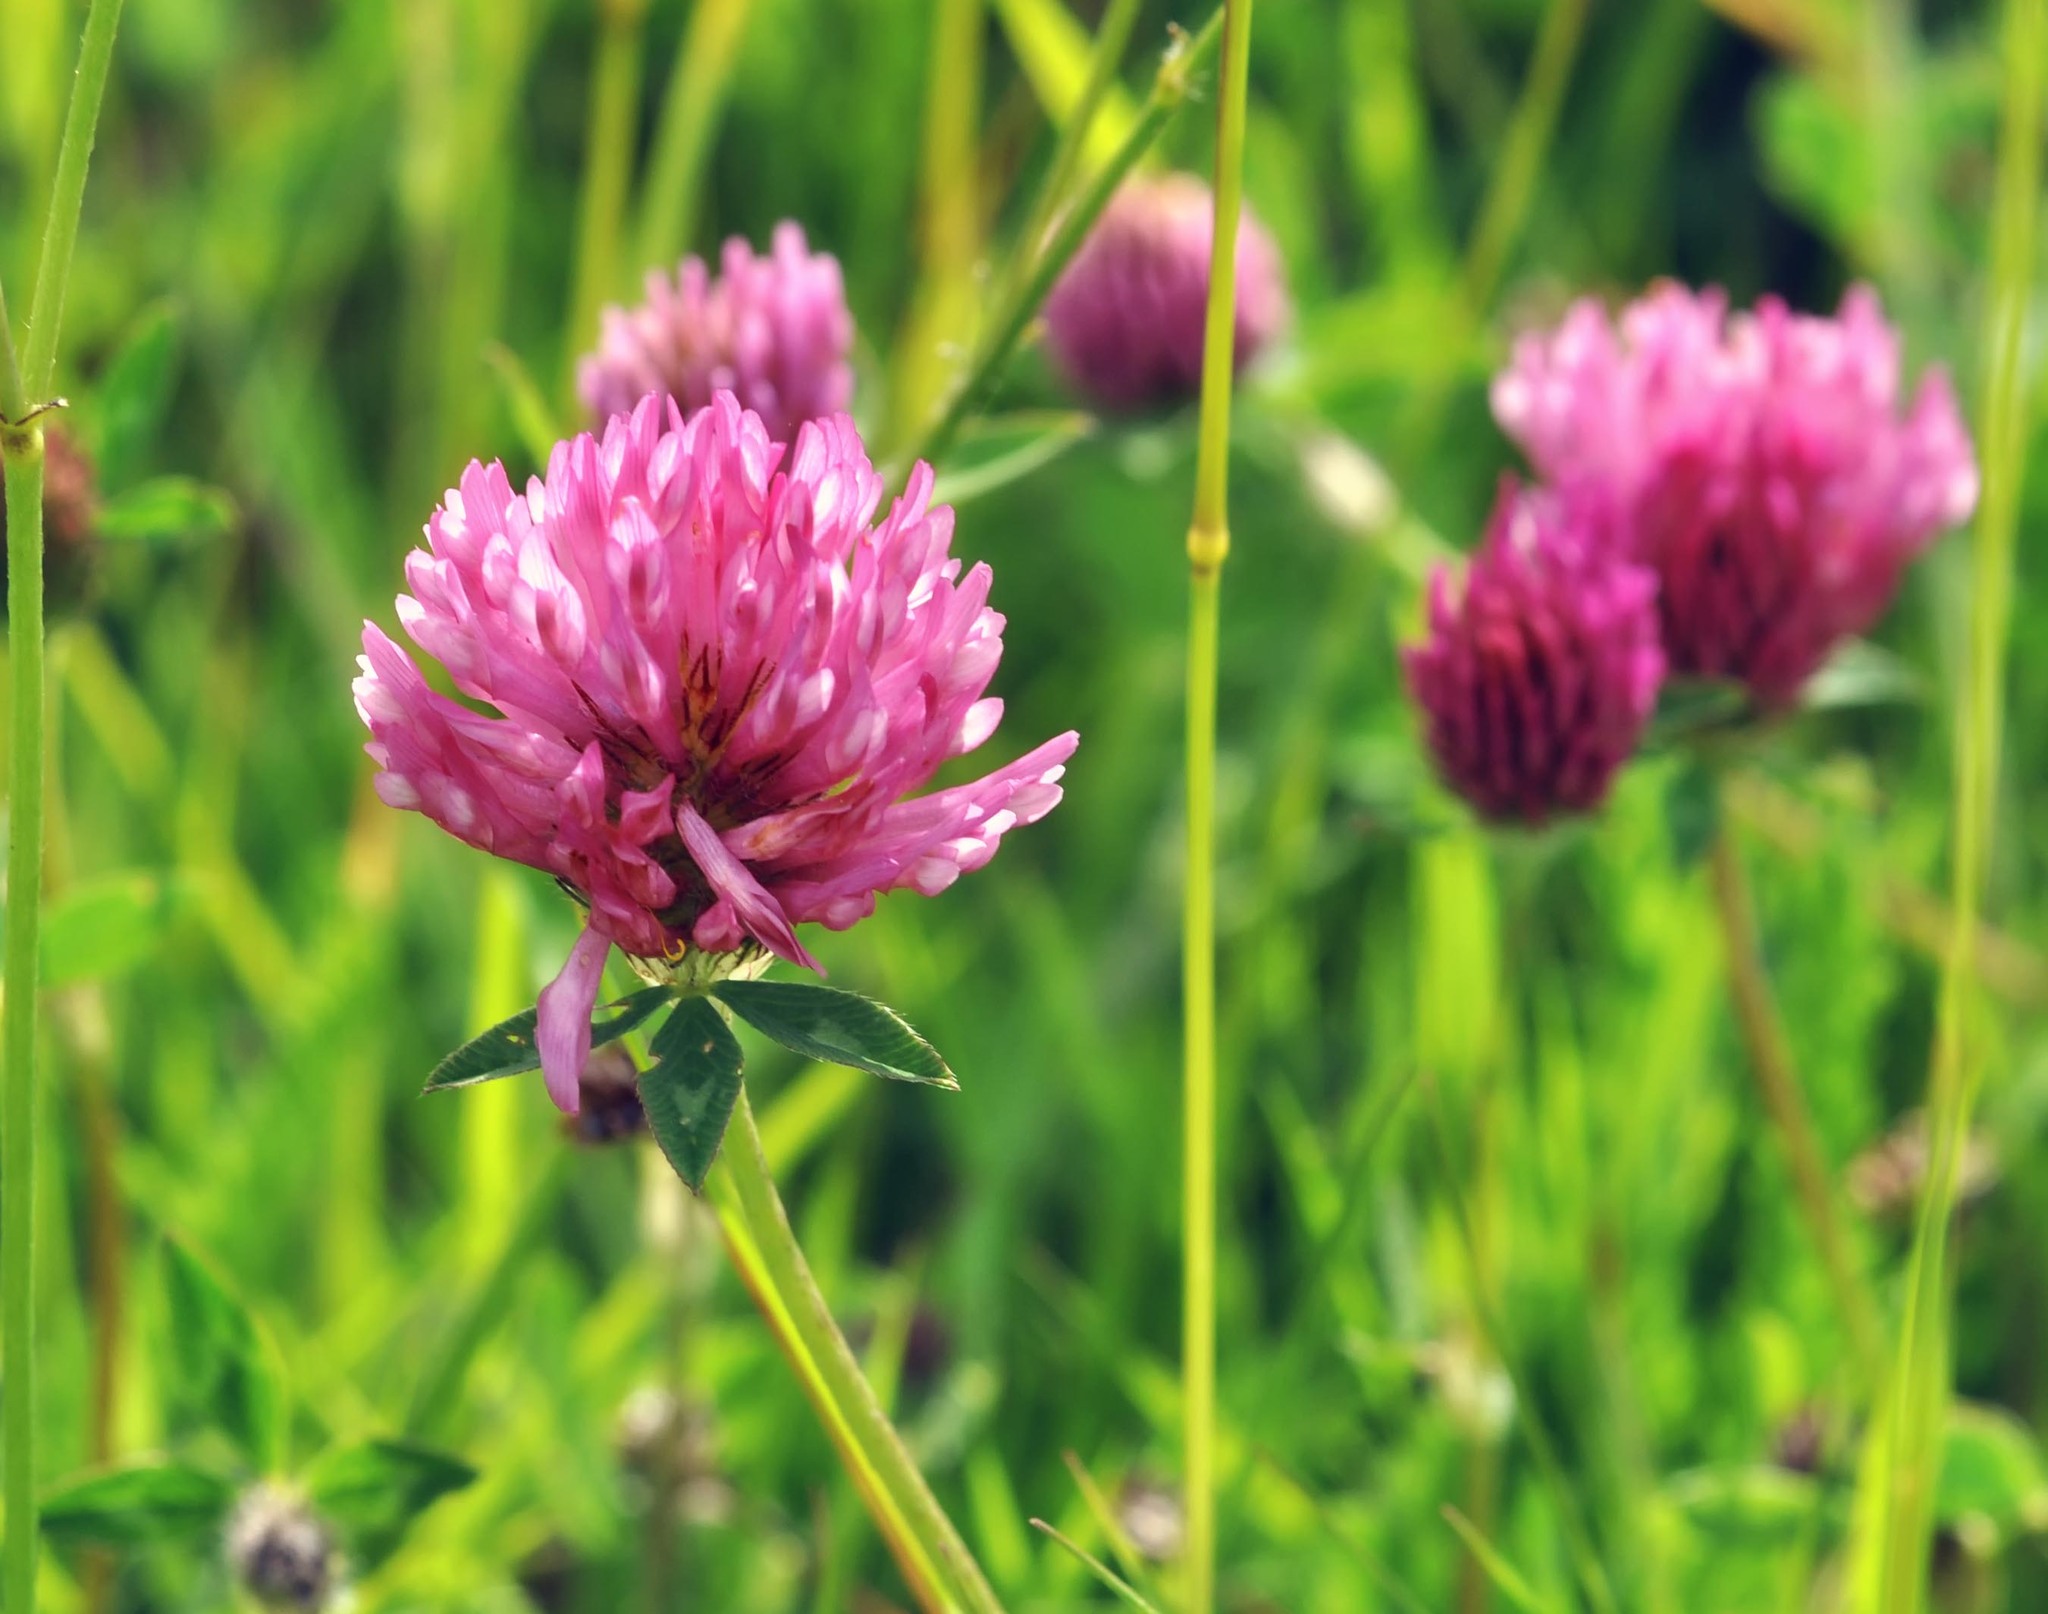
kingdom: Plantae
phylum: Tracheophyta
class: Magnoliopsida
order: Fabales
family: Fabaceae
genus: Trifolium
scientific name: Trifolium pratense
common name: Red clover
